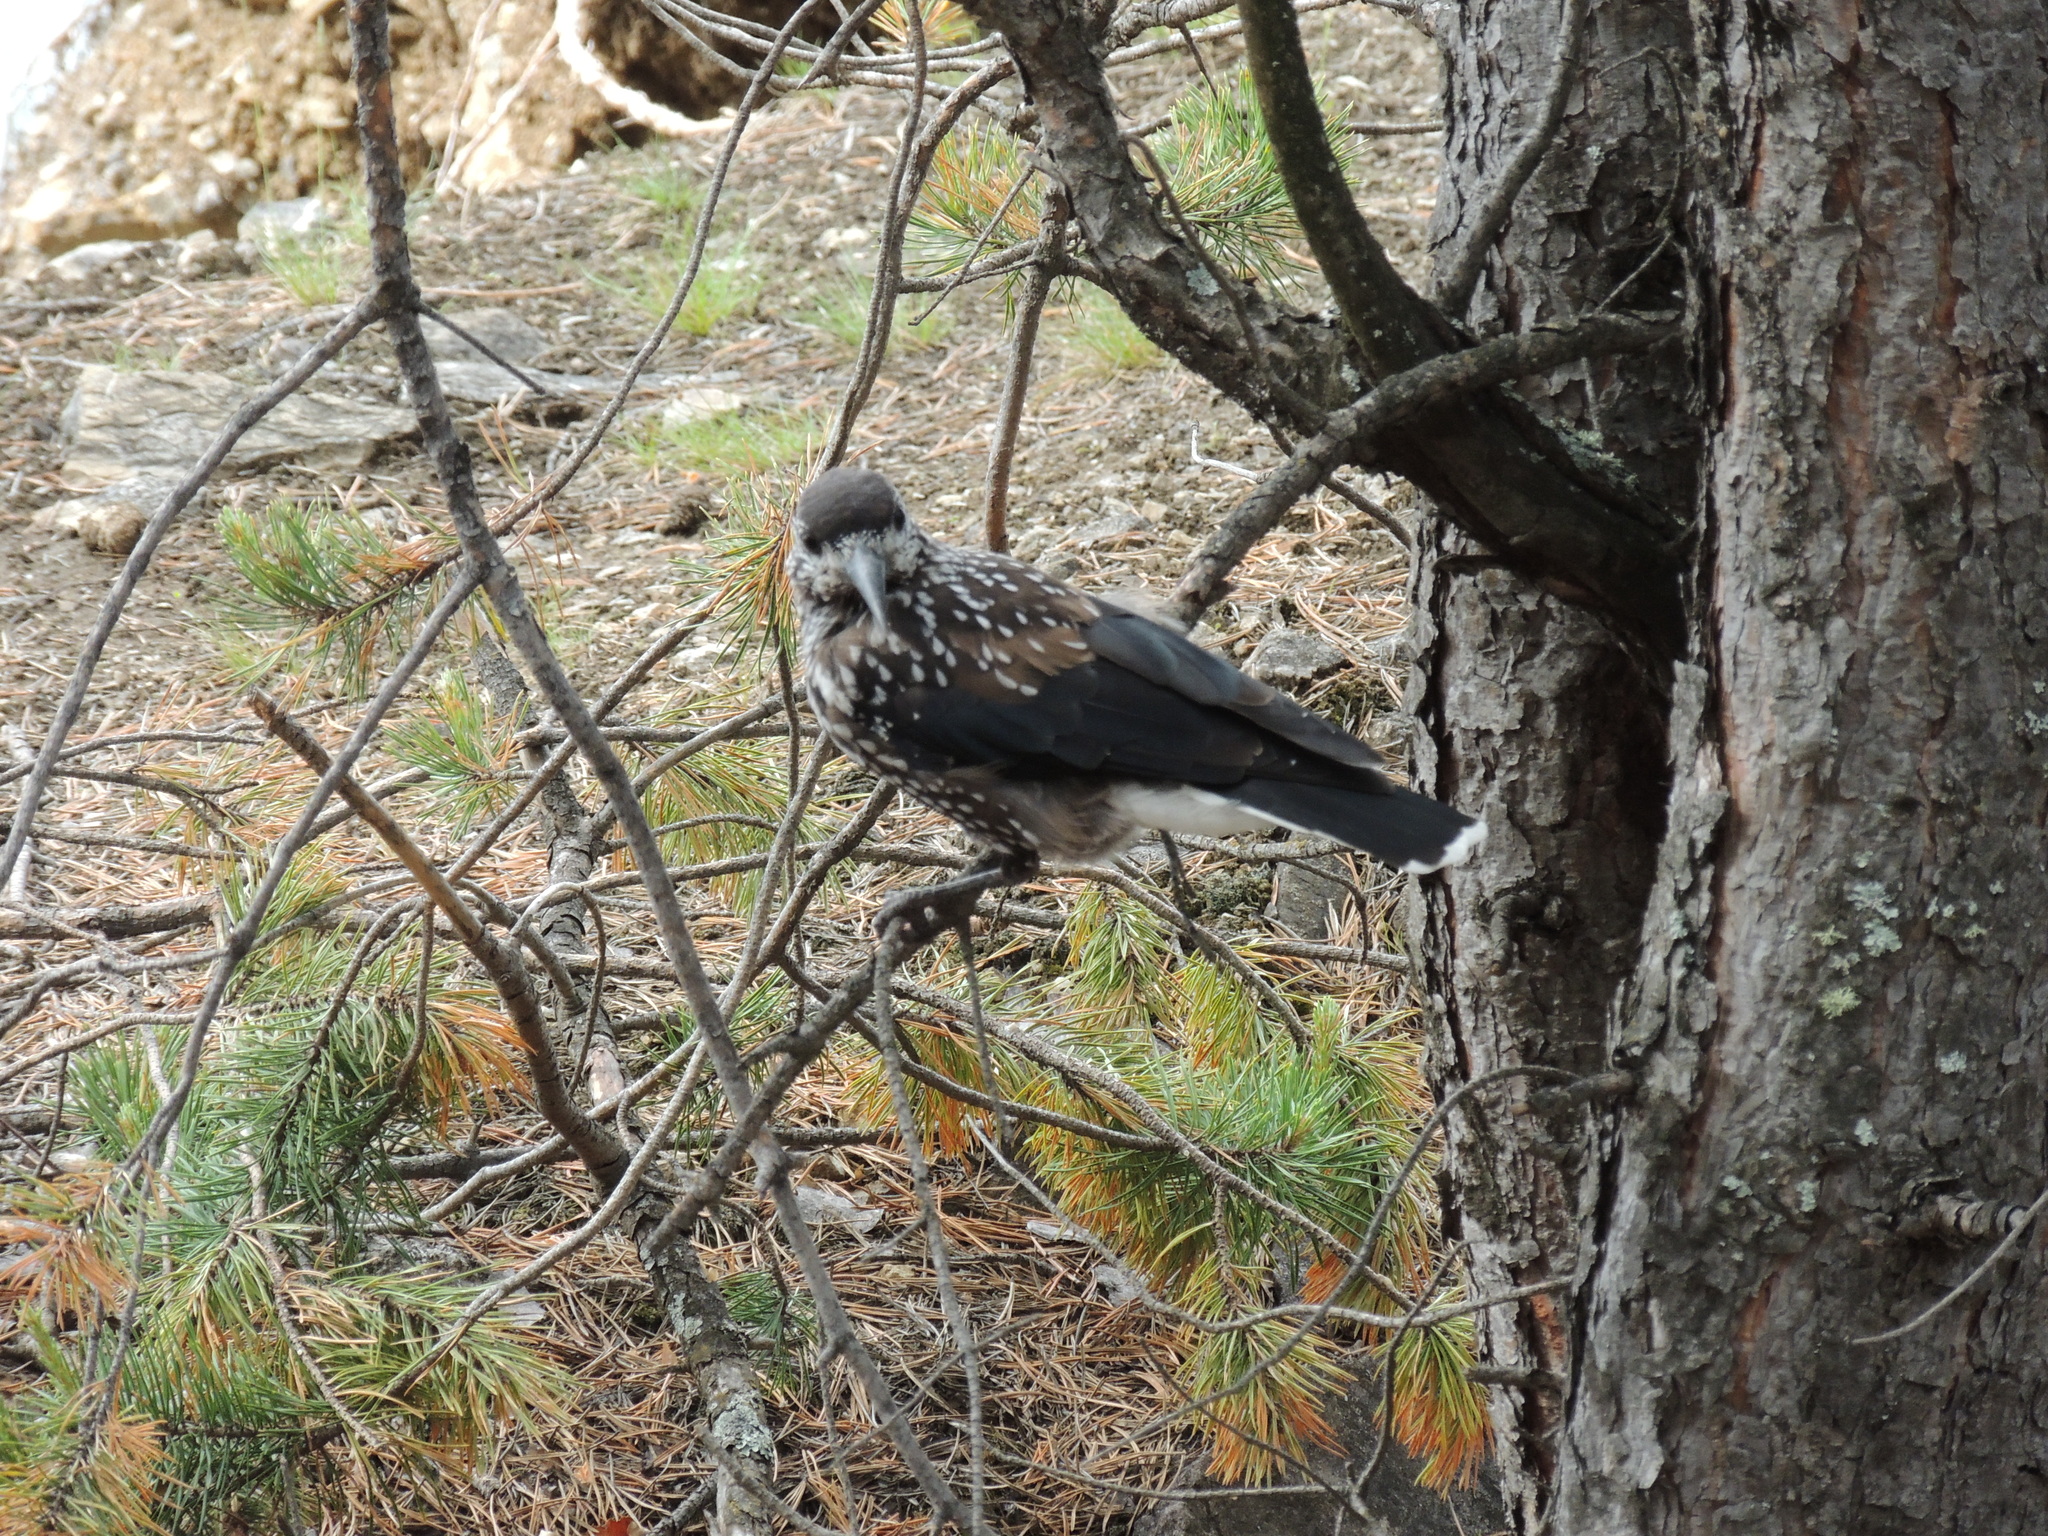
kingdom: Animalia
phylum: Chordata
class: Aves
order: Passeriformes
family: Corvidae
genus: Nucifraga
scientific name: Nucifraga caryocatactes
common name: Spotted nutcracker
